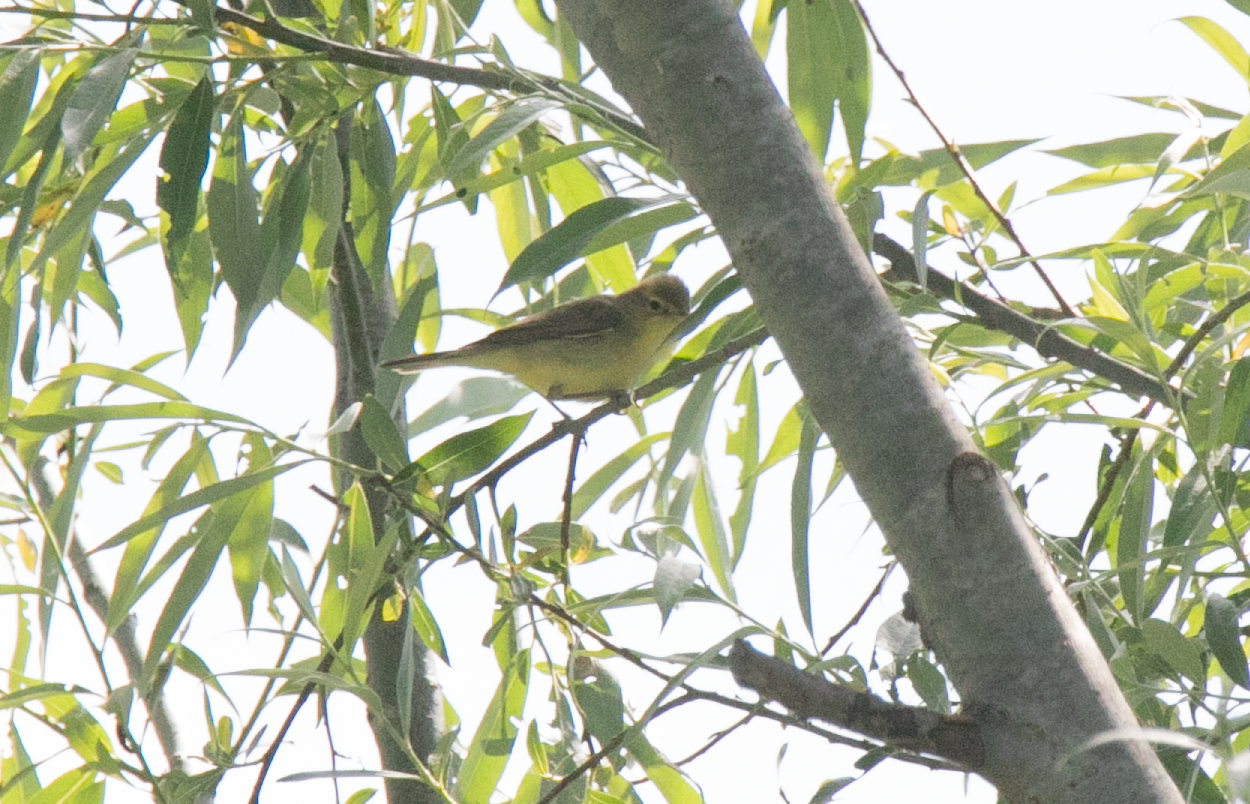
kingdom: Animalia
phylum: Chordata
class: Aves
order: Passeriformes
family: Acrocephalidae
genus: Hippolais
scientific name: Hippolais polyglotta
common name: Melodious warbler
